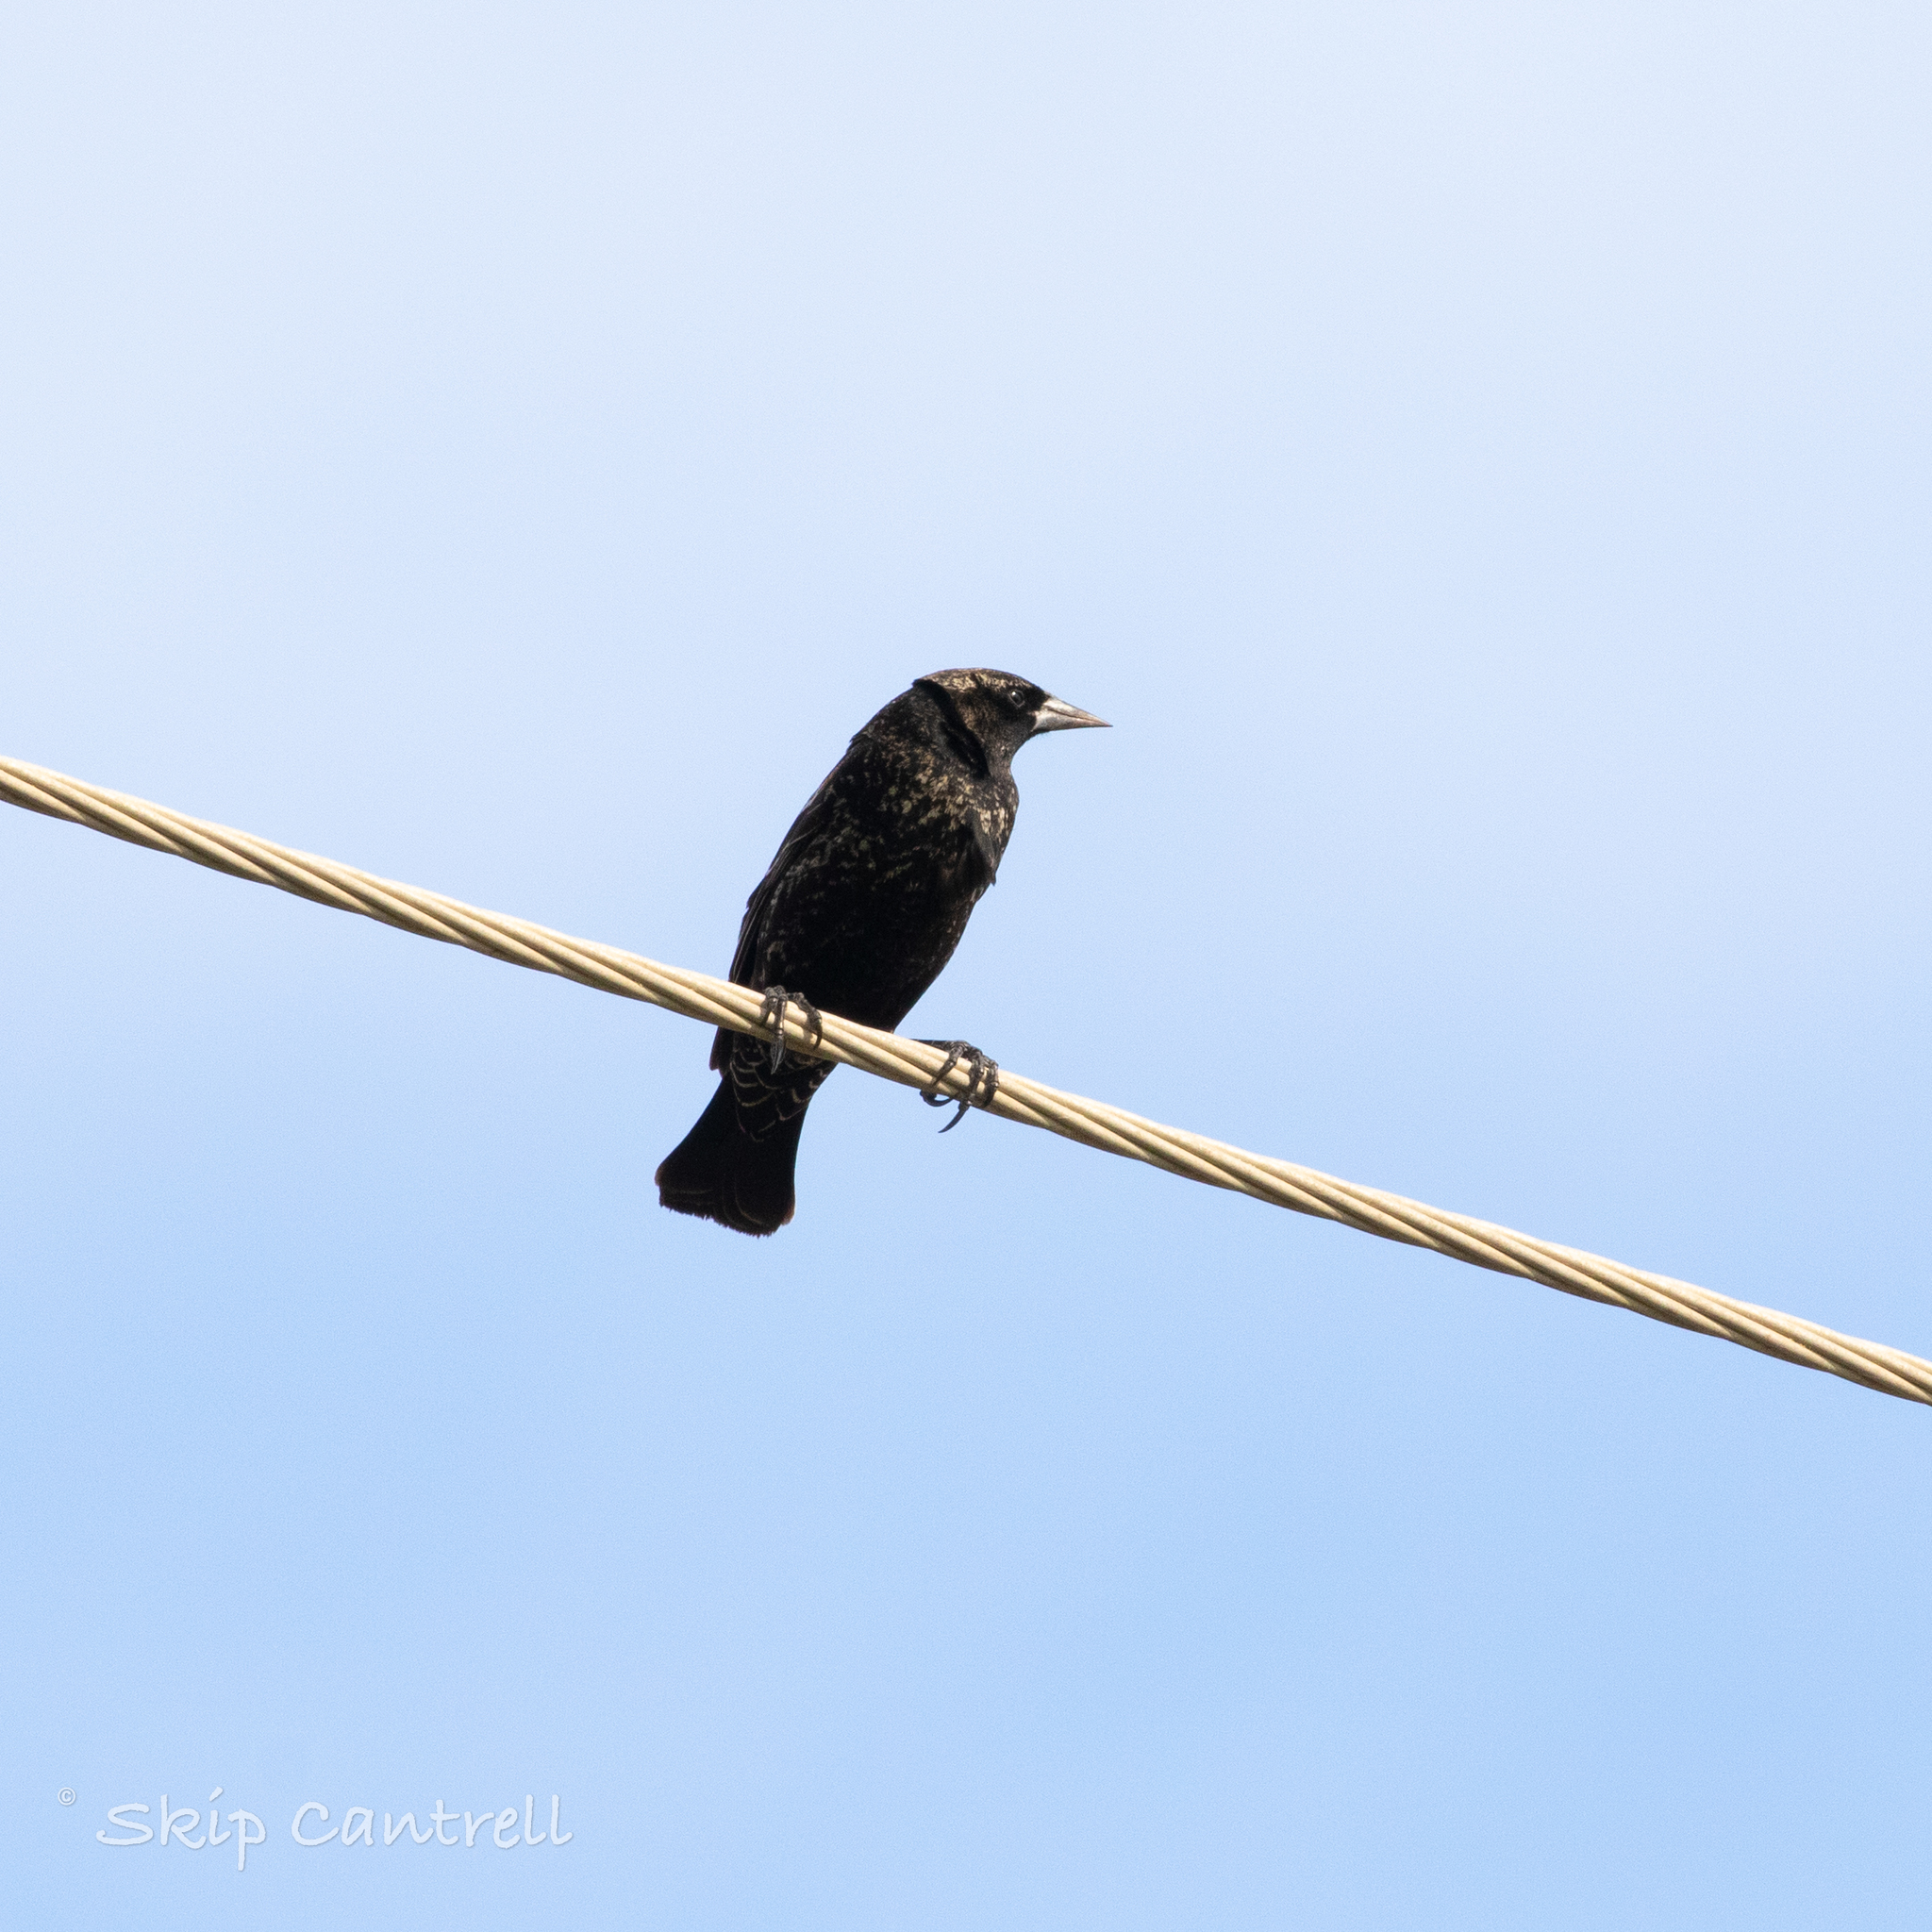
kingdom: Animalia
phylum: Chordata
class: Aves
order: Passeriformes
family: Icteridae
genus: Agelaius
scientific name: Agelaius phoeniceus
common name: Red-winged blackbird
